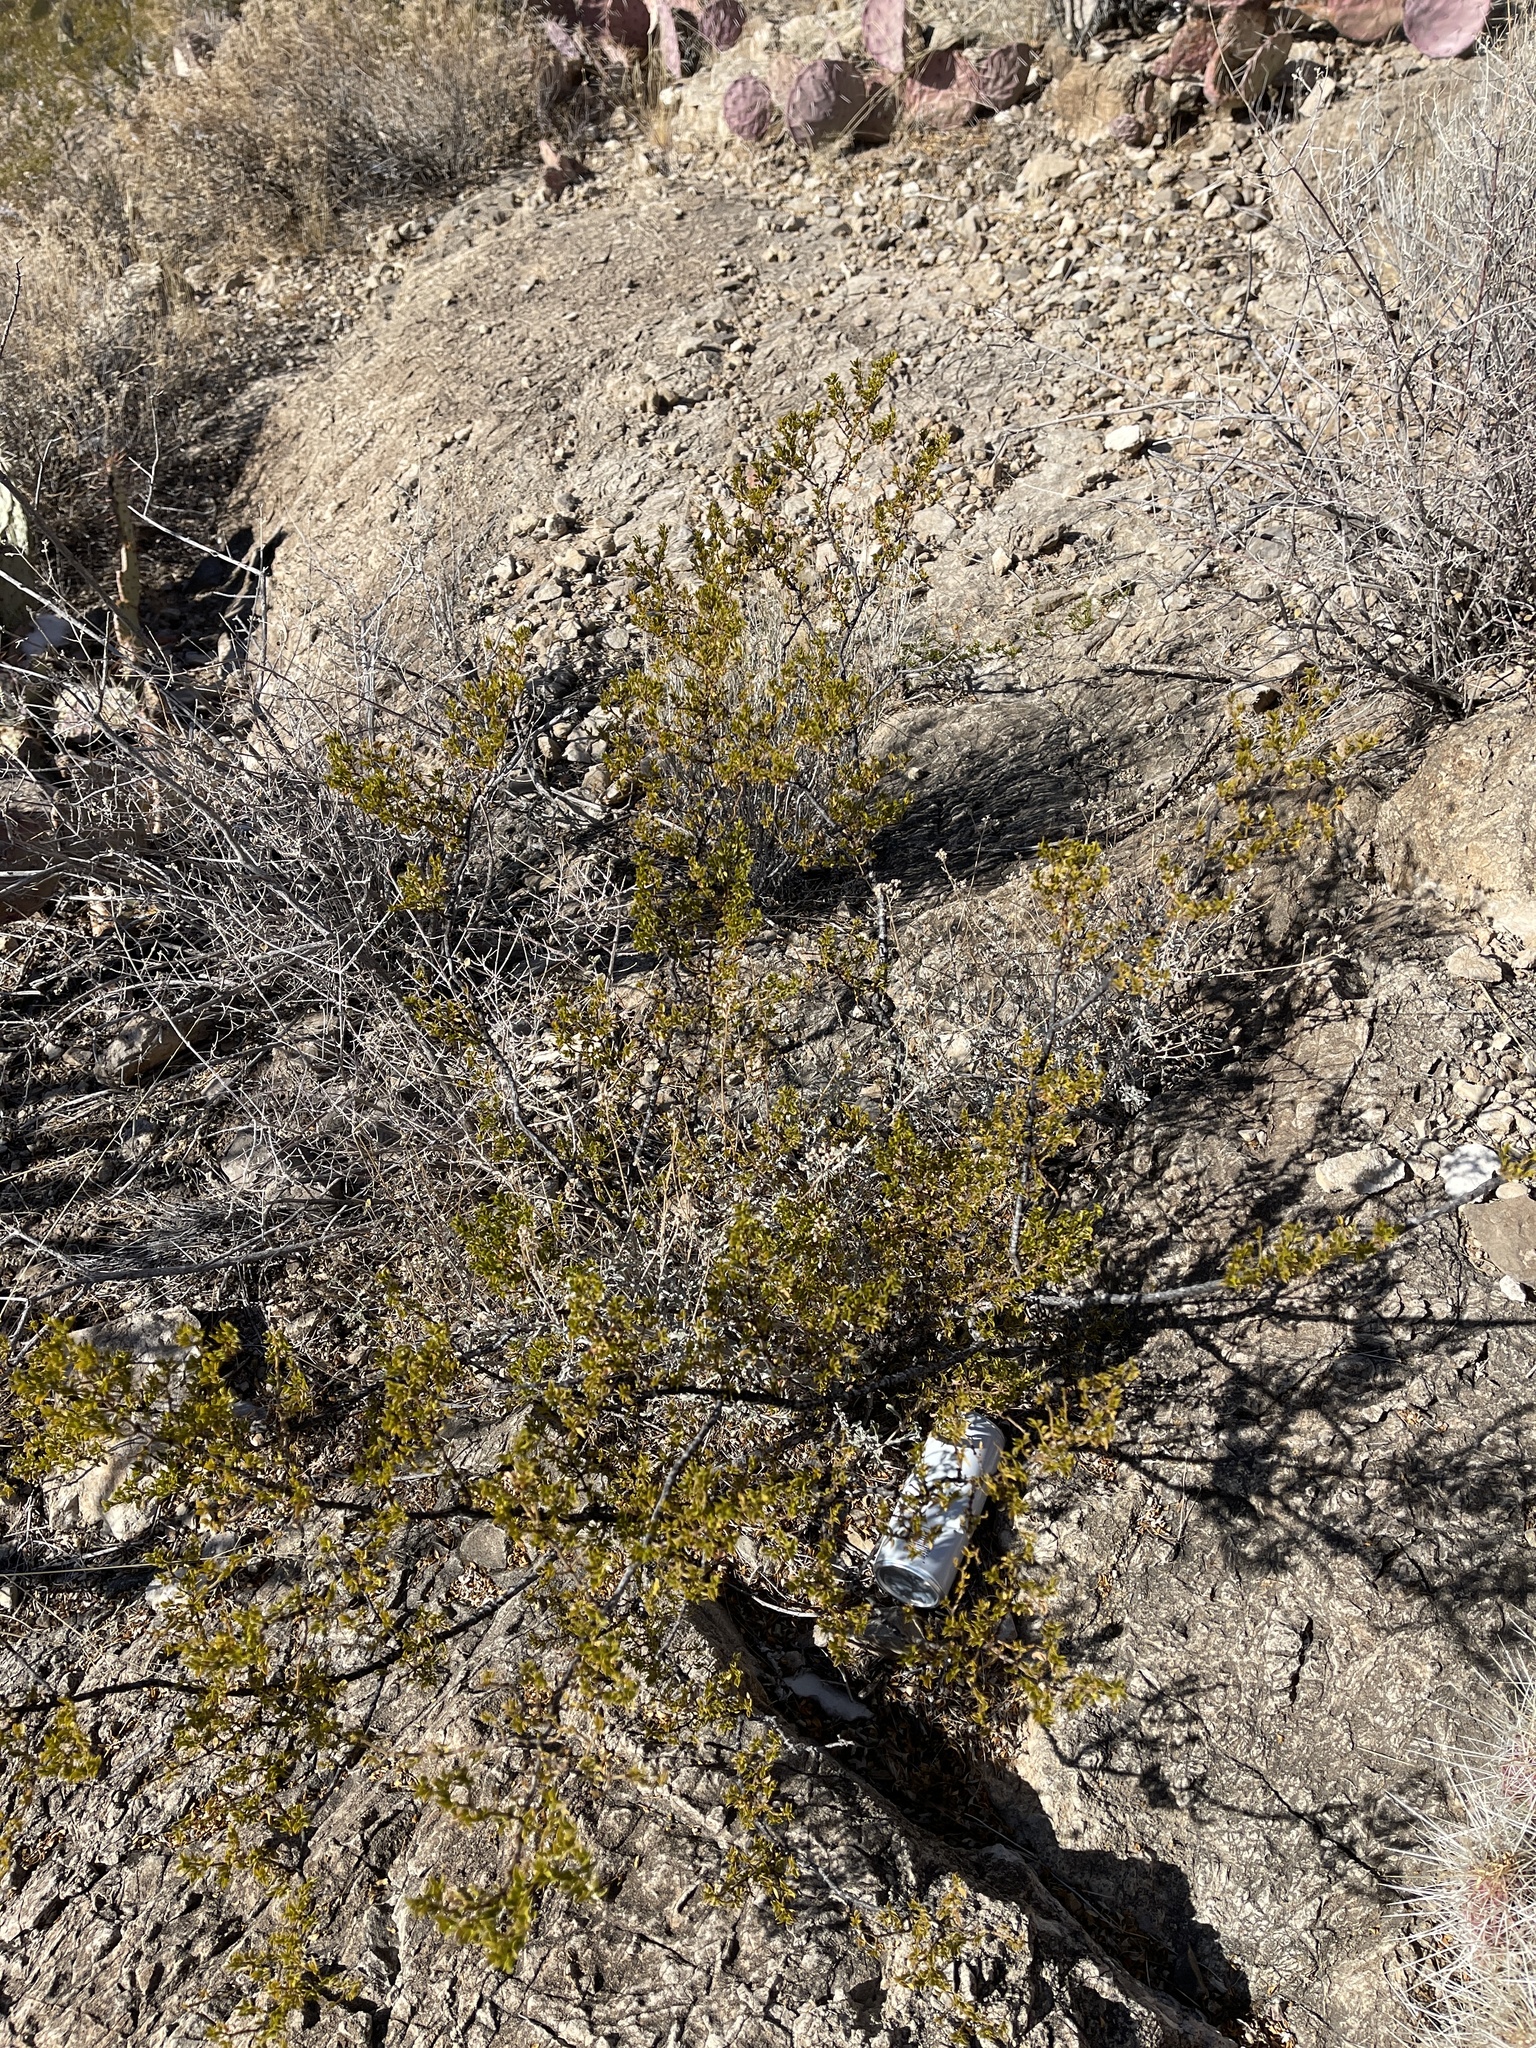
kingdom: Plantae
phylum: Tracheophyta
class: Magnoliopsida
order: Zygophyllales
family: Zygophyllaceae
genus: Larrea
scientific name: Larrea tridentata
